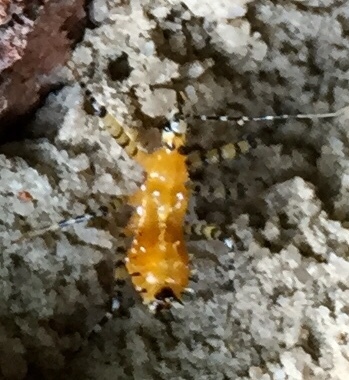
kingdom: Animalia
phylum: Arthropoda
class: Insecta
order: Hemiptera
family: Reduviidae
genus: Pselliopus
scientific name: Pselliopus barberi
